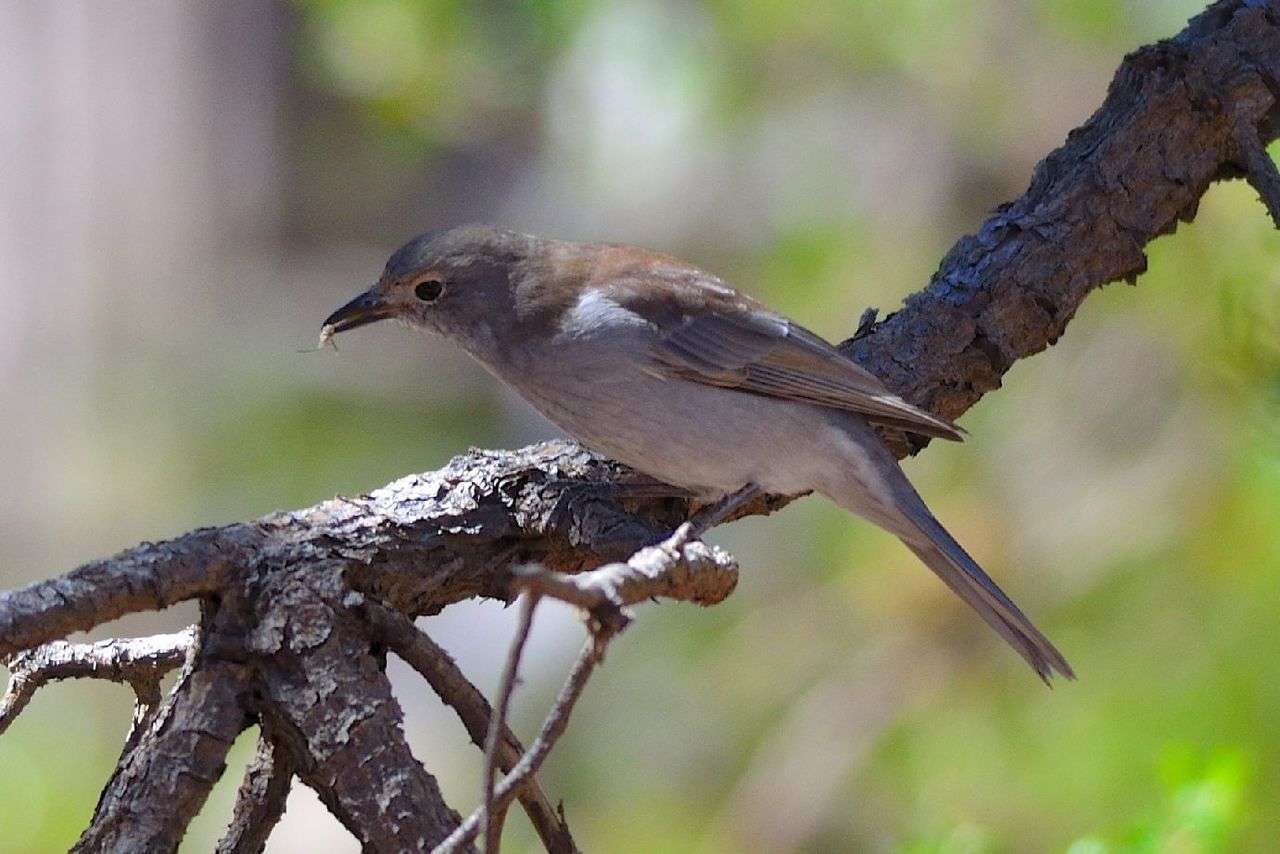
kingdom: Animalia
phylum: Chordata
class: Aves
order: Passeriformes
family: Pachycephalidae
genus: Colluricincla
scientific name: Colluricincla harmonica
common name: Grey shrikethrush
